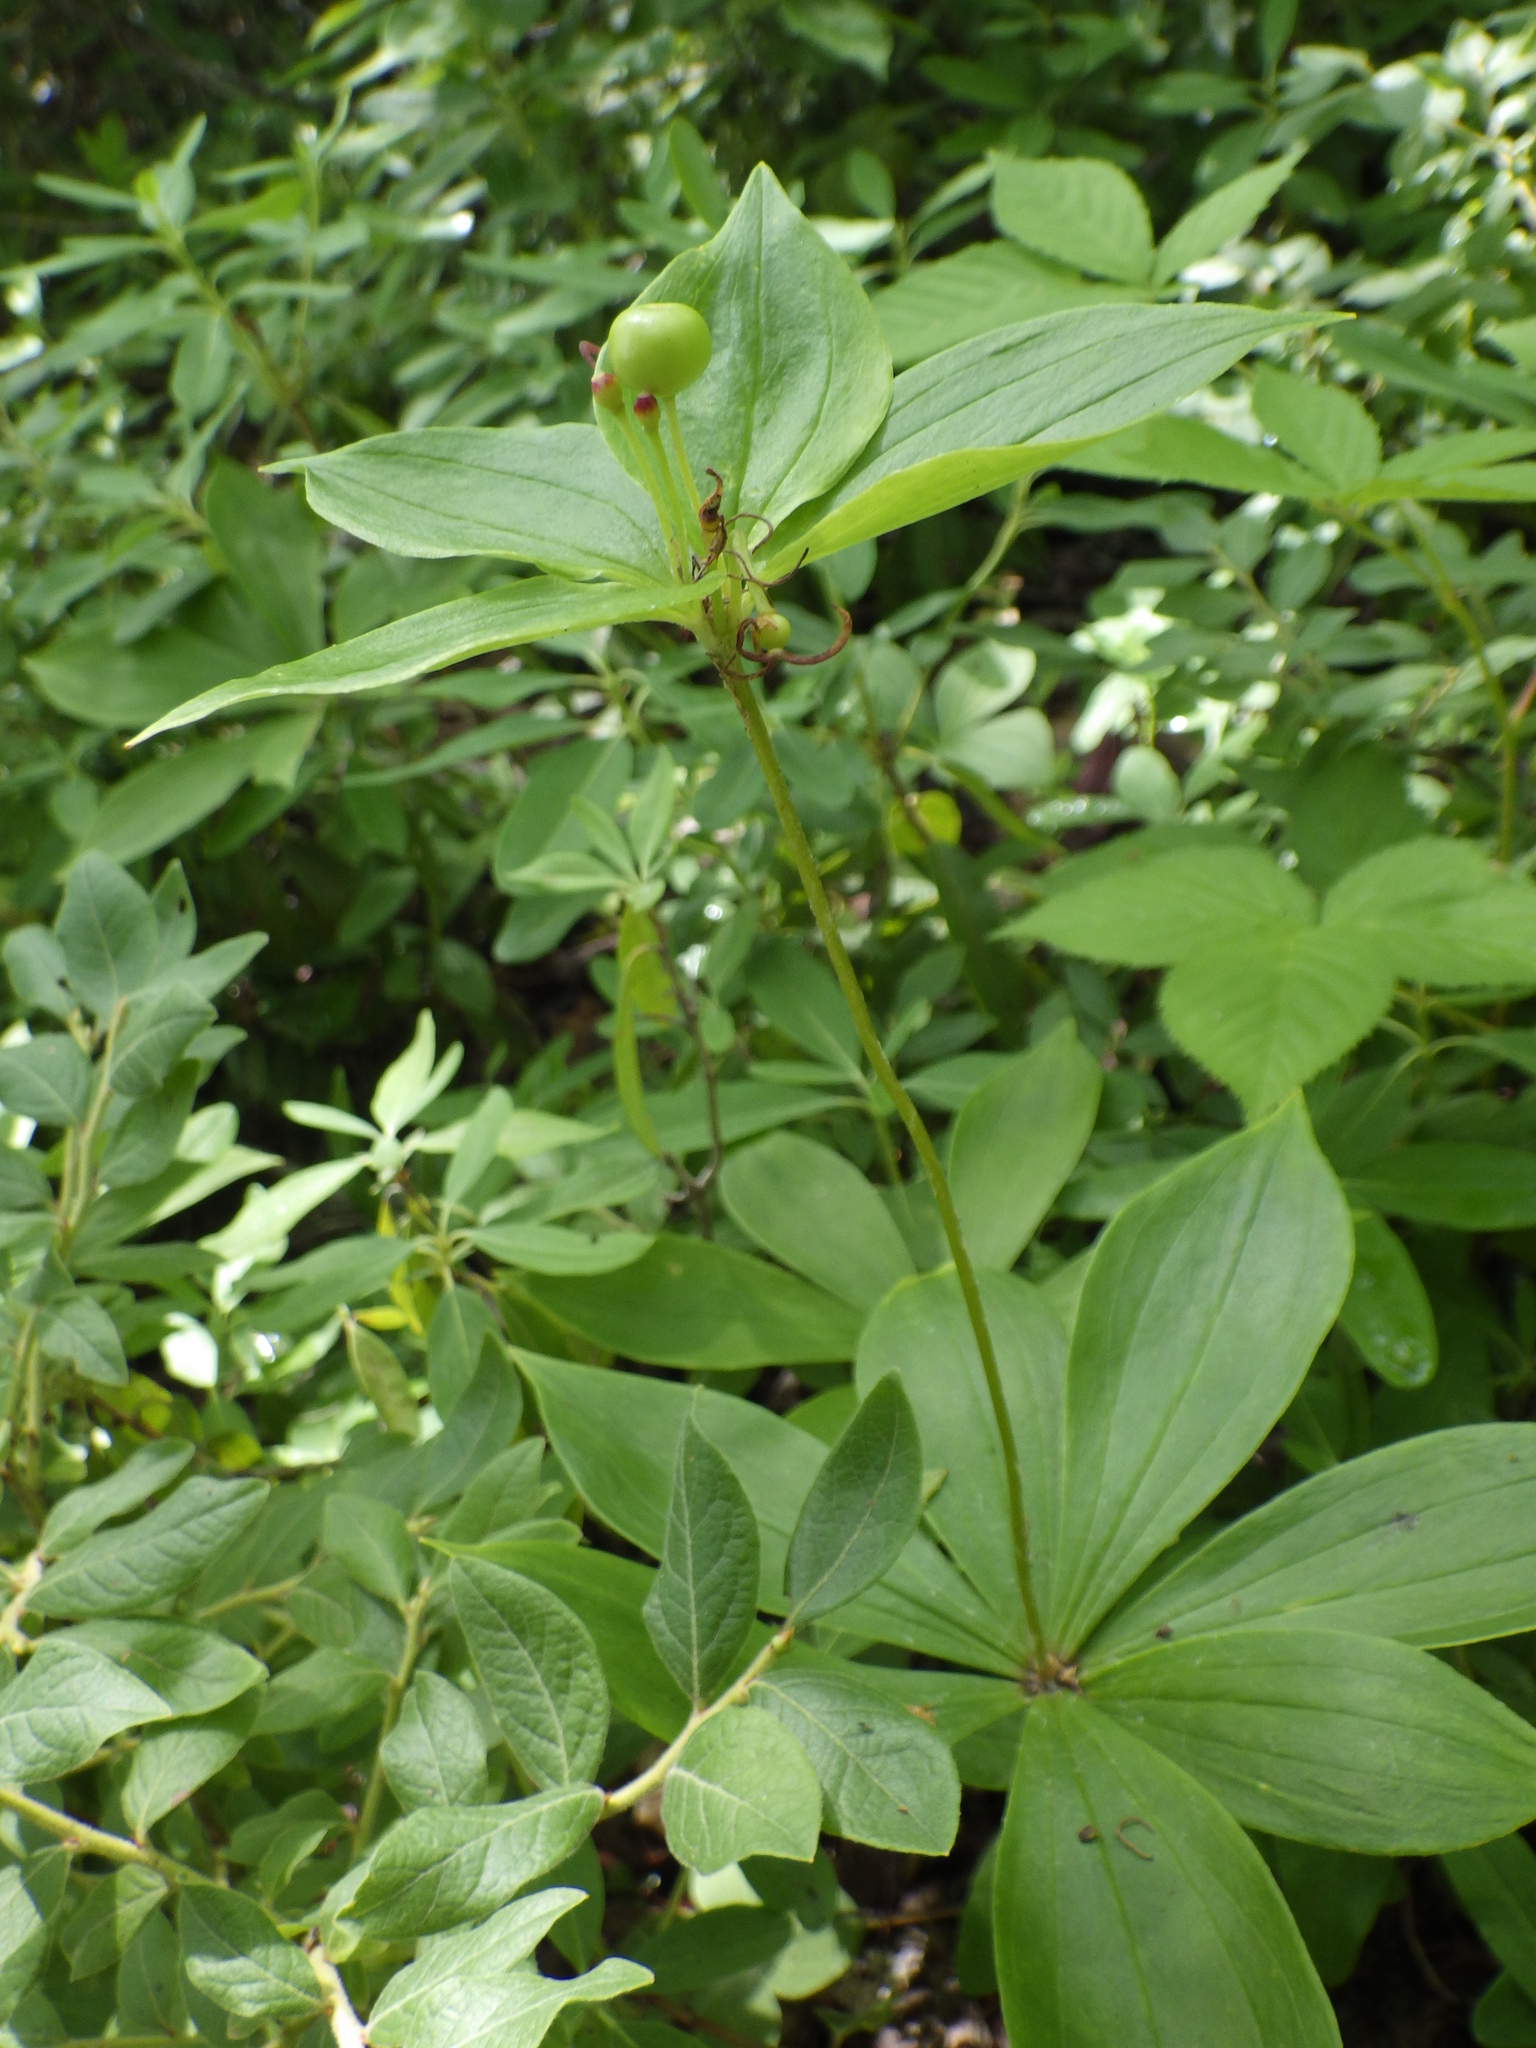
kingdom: Plantae
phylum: Tracheophyta
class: Liliopsida
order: Liliales
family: Liliaceae
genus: Medeola
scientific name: Medeola virginiana
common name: Indian cucumber-root
